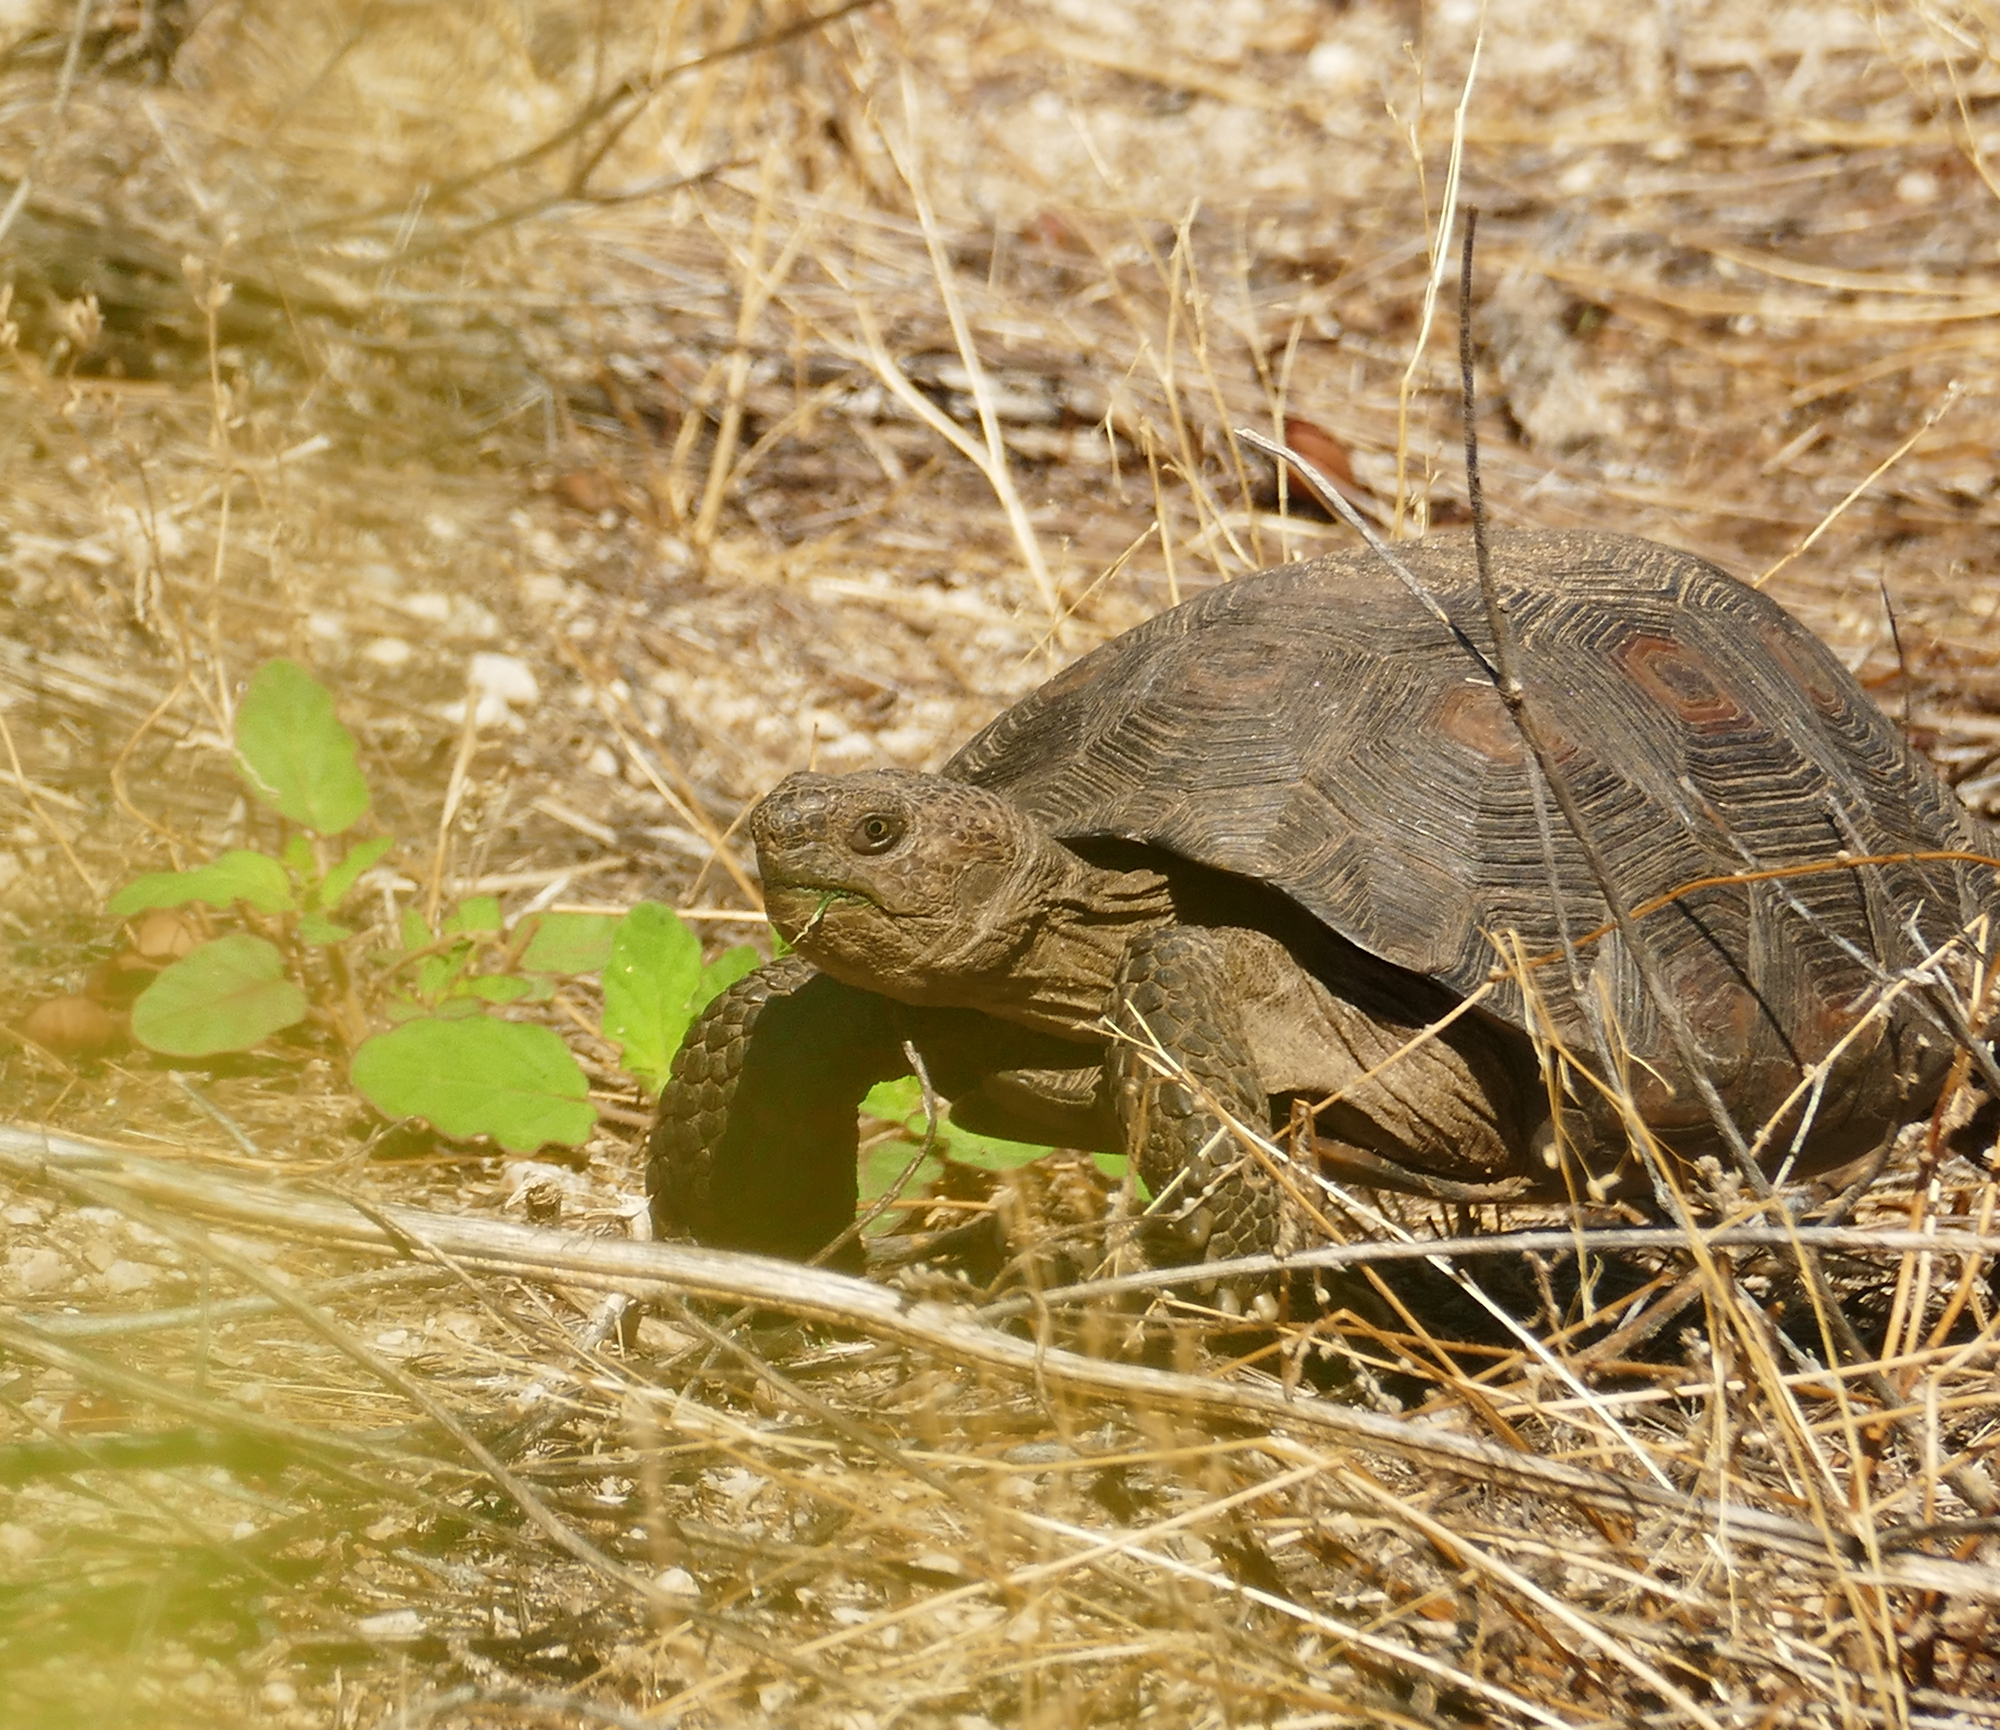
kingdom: Animalia
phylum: Chordata
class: Testudines
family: Testudinidae
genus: Gopherus
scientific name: Gopherus morafkai
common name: Sonoran desert tortoise
